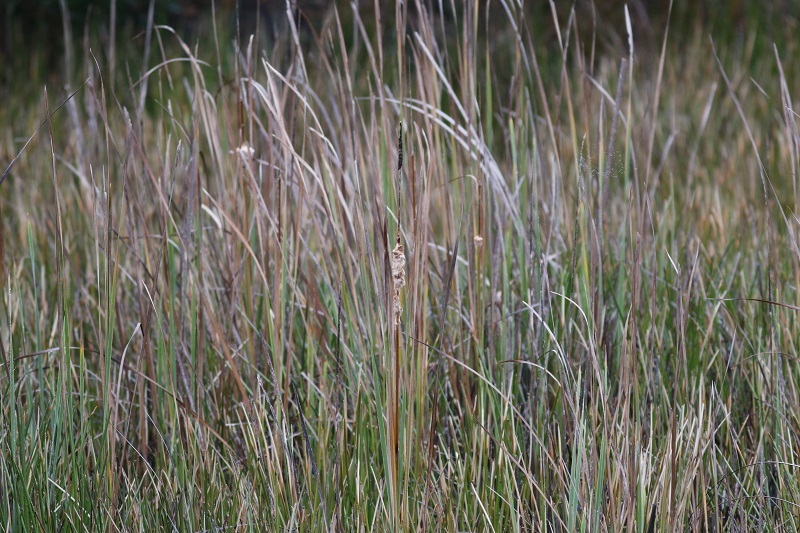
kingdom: Plantae
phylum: Tracheophyta
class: Liliopsida
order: Poales
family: Typhaceae
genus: Typha
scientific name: Typha capensis
